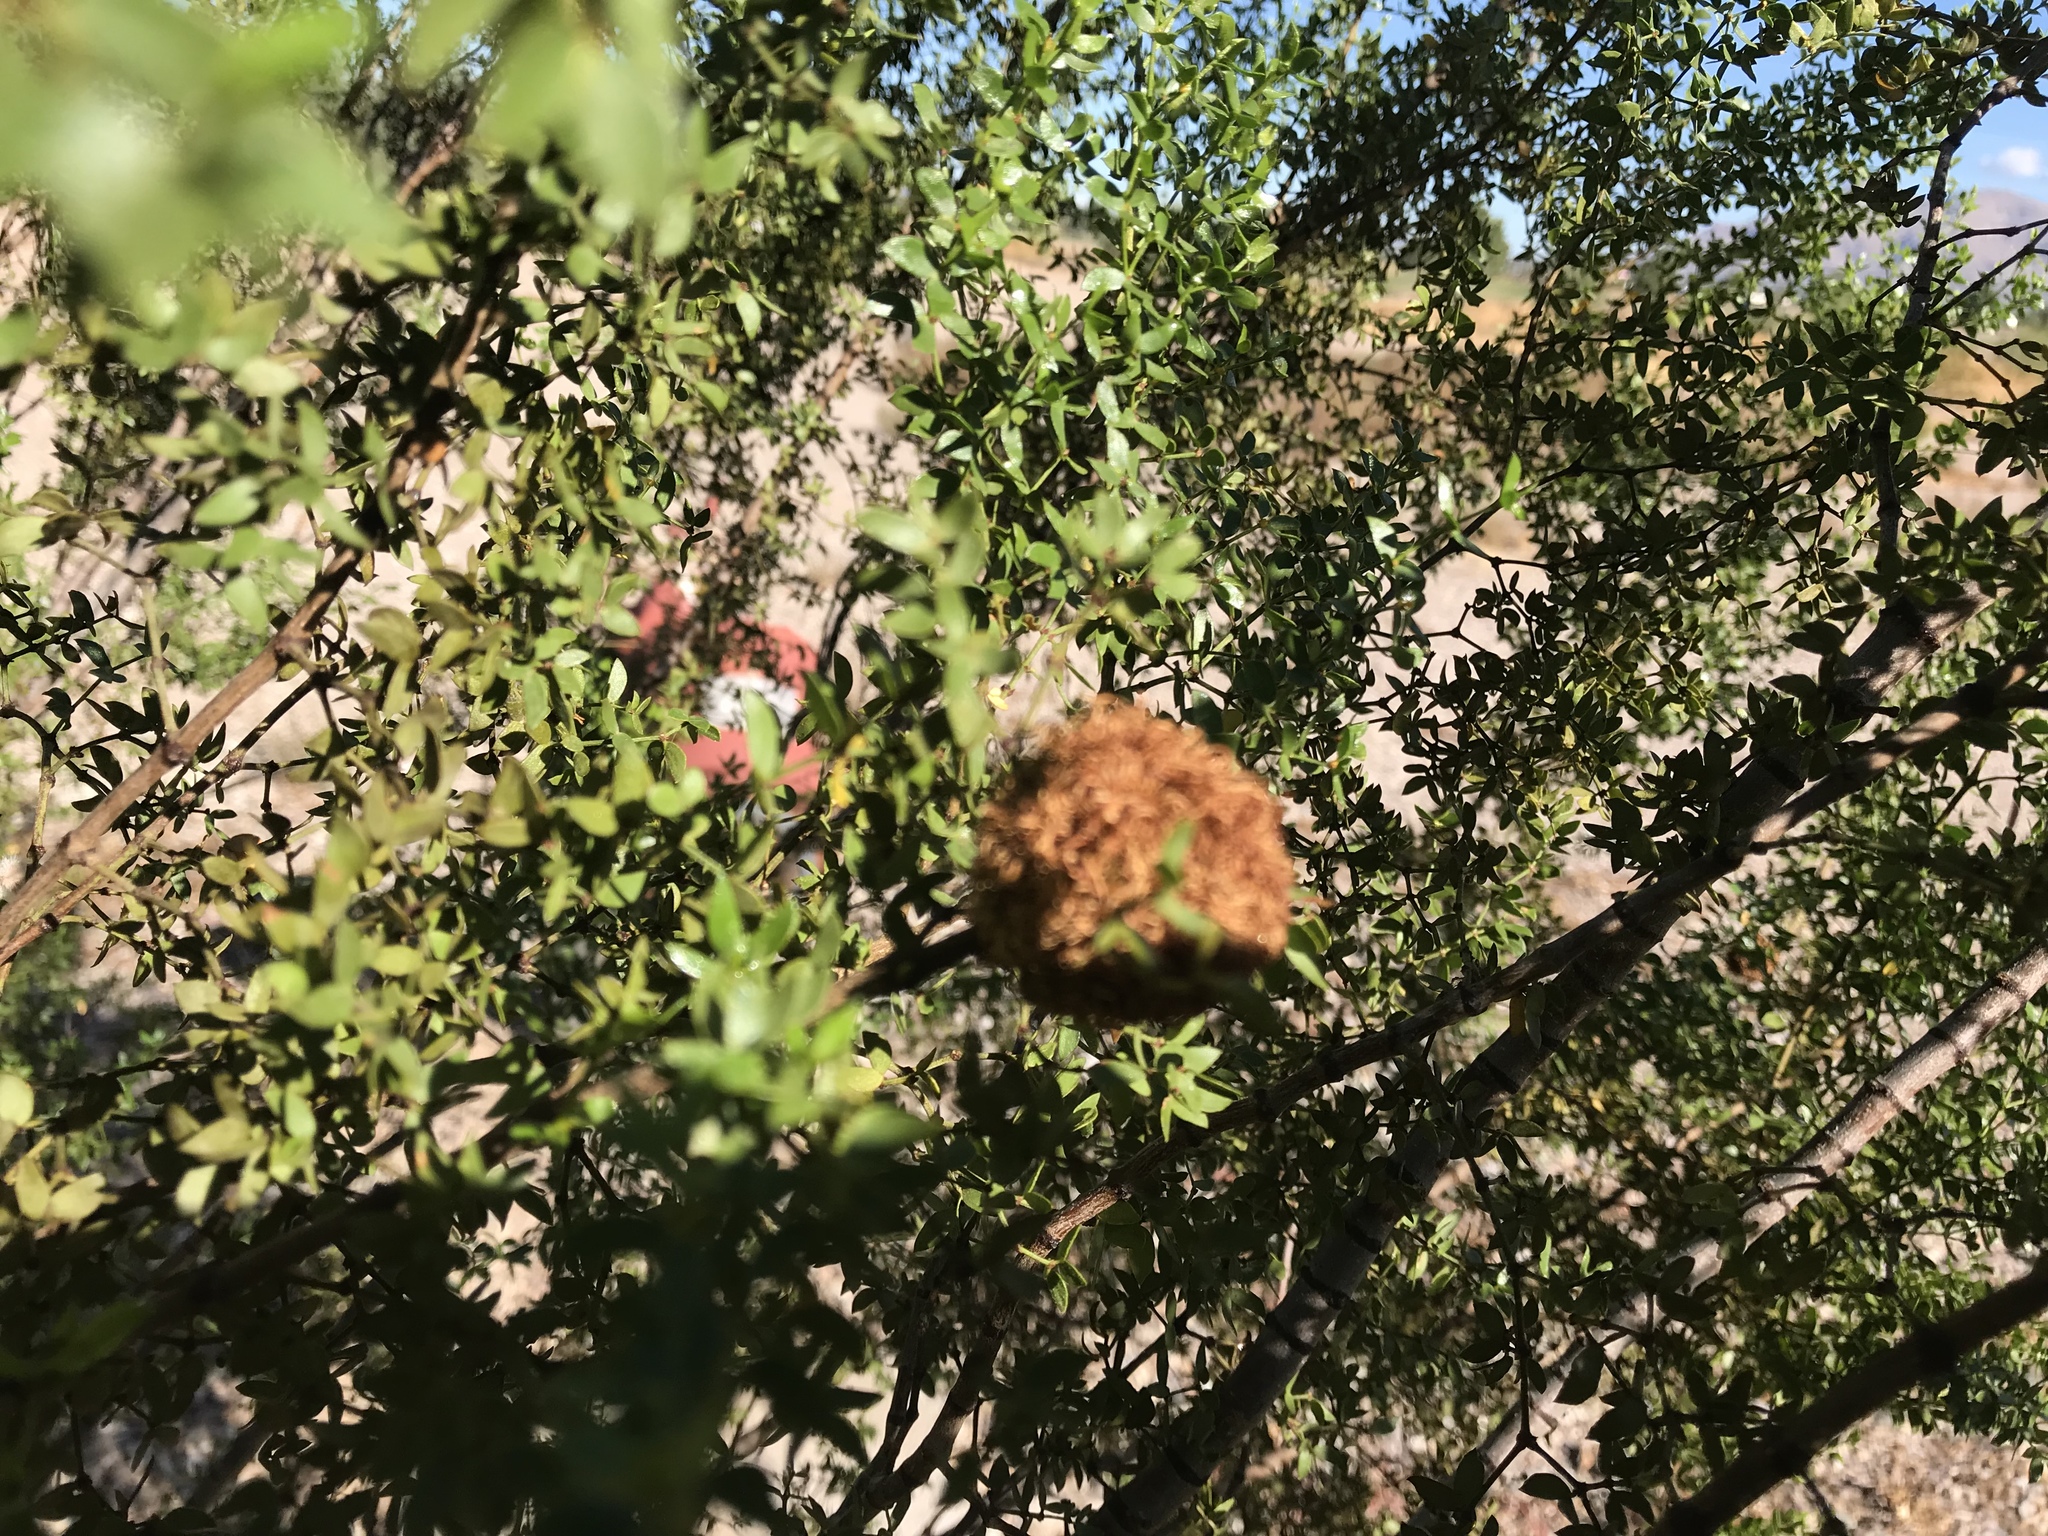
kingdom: Animalia
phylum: Arthropoda
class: Insecta
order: Diptera
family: Cecidomyiidae
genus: Asphondylia
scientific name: Asphondylia auripila
